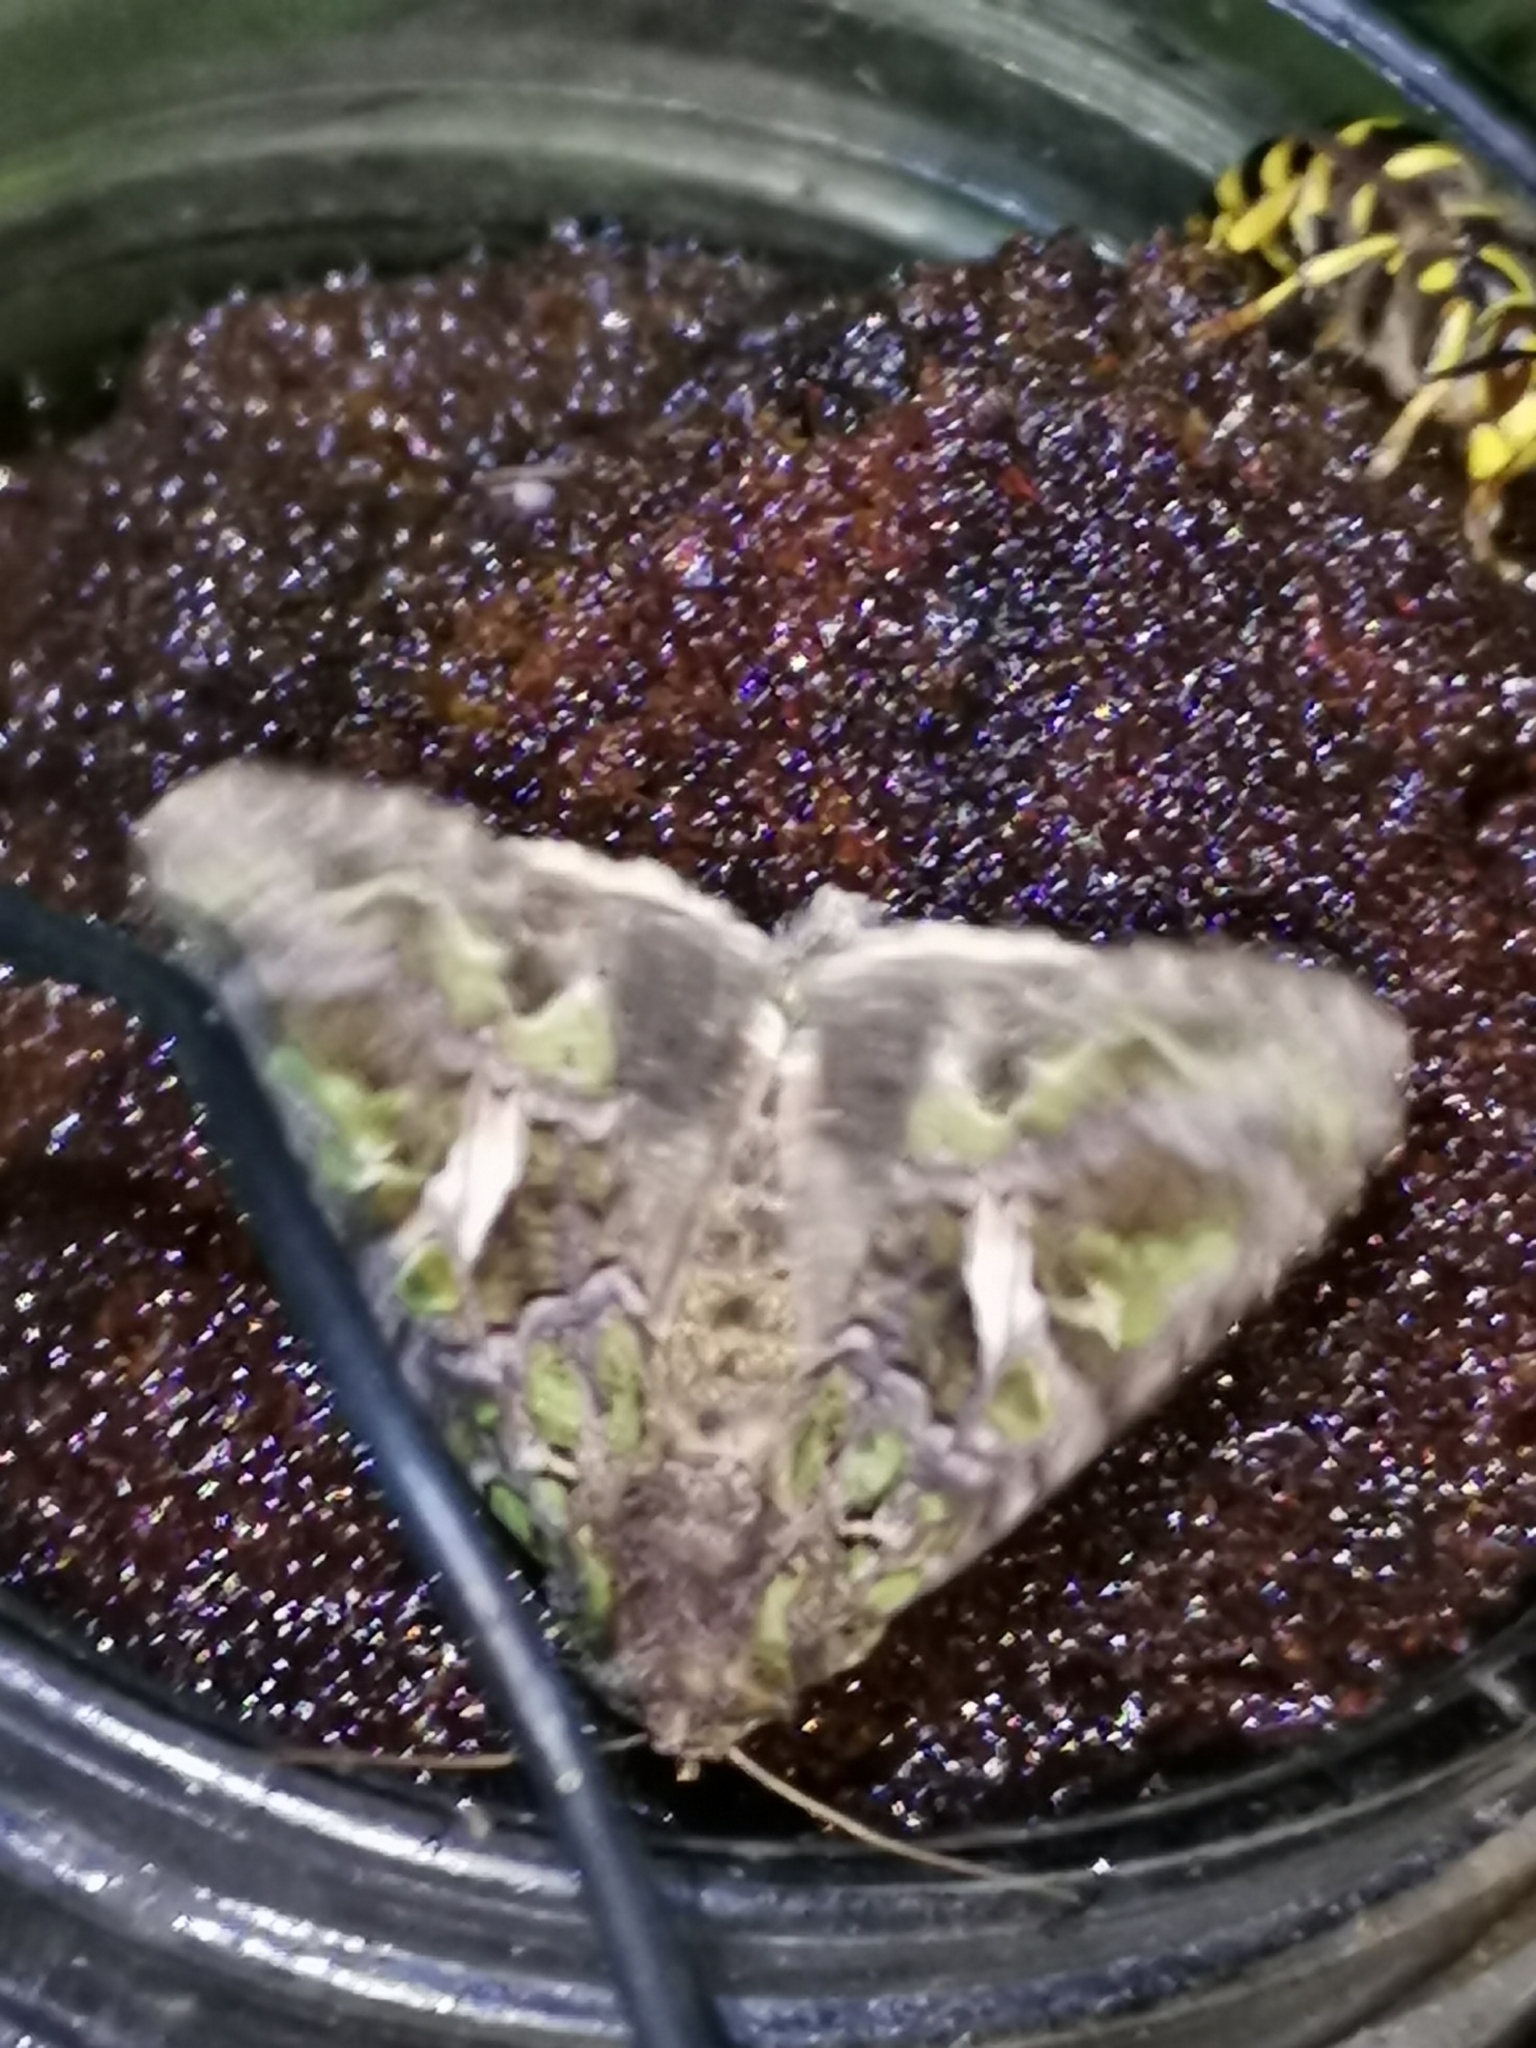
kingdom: Animalia
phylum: Arthropoda
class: Insecta
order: Lepidoptera
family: Noctuidae
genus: Trachea
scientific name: Trachea atriplicis
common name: Orache moth
